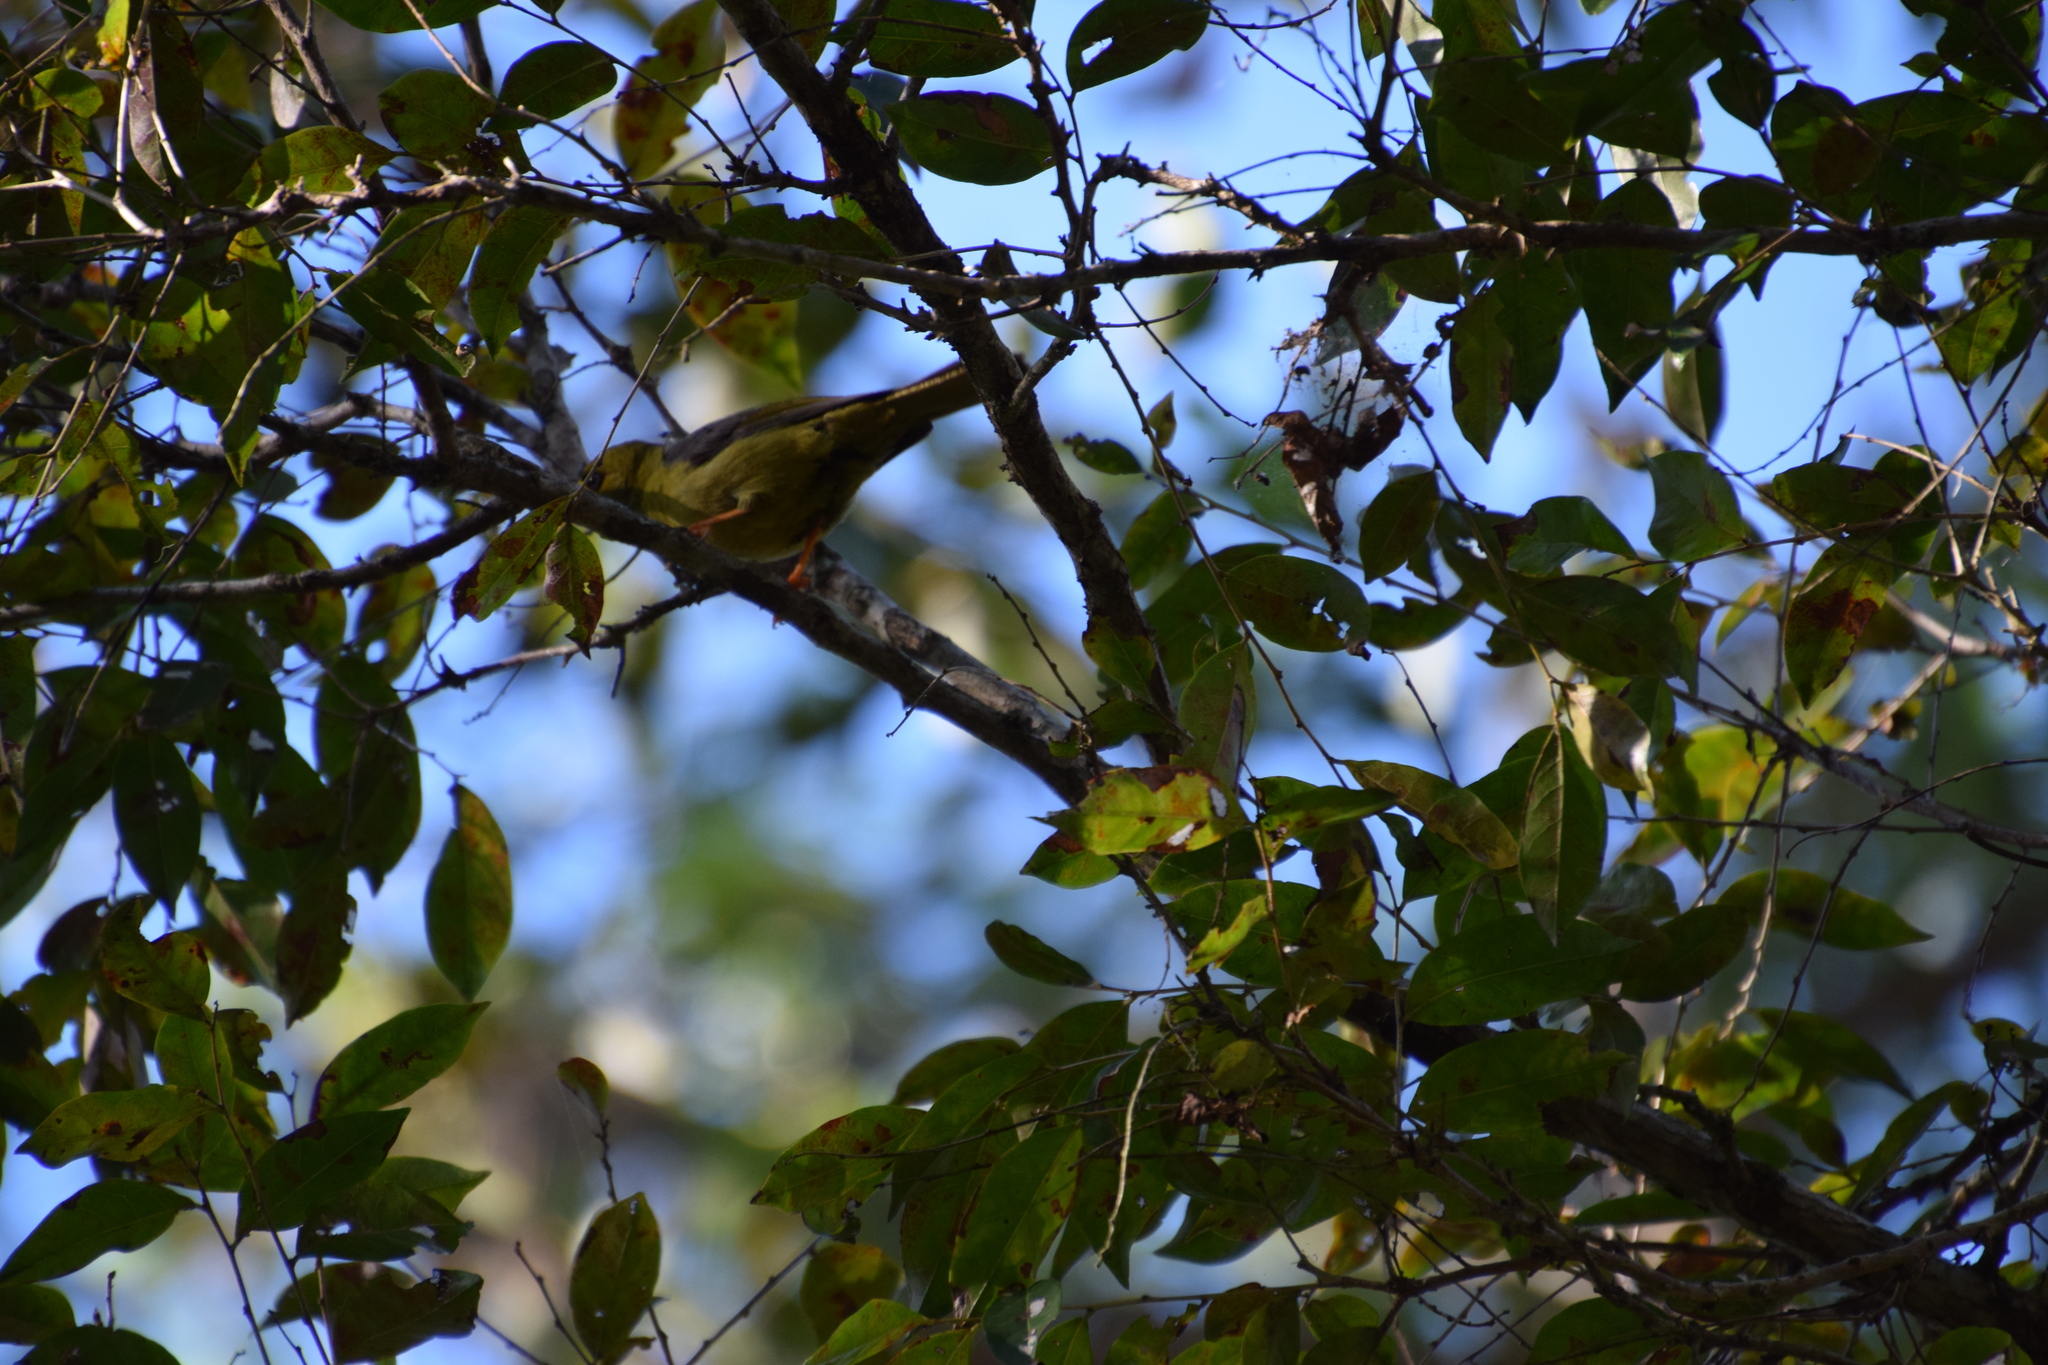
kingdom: Animalia
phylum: Chordata
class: Aves
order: Passeriformes
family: Meliphagidae
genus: Manorina
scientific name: Manorina melanophrys
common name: Bell miner
